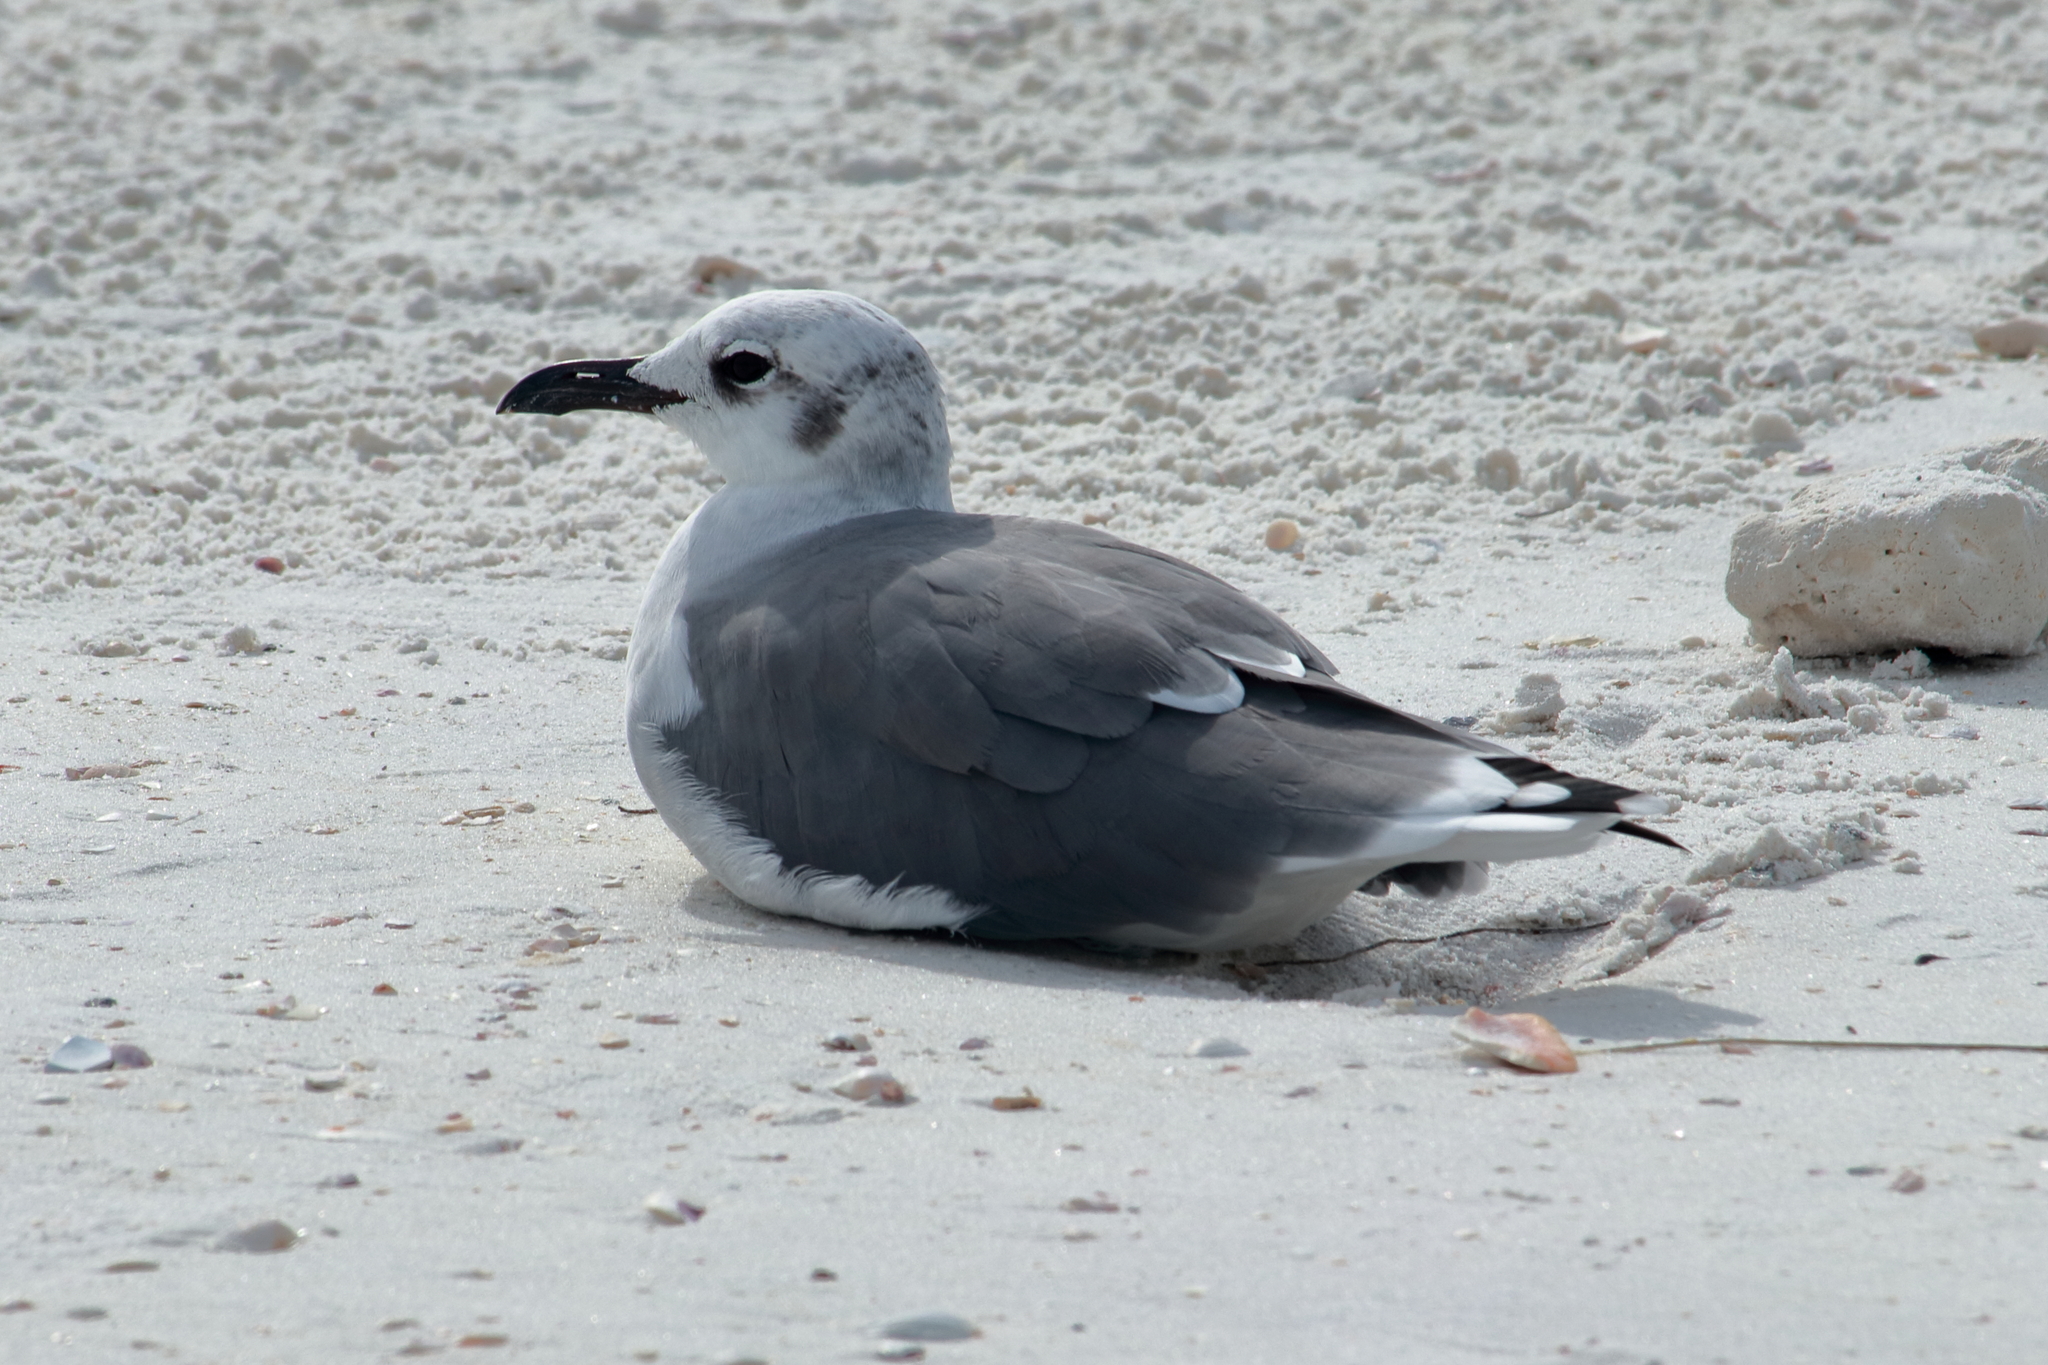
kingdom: Animalia
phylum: Chordata
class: Aves
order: Charadriiformes
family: Laridae
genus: Leucophaeus
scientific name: Leucophaeus atricilla
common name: Laughing gull
